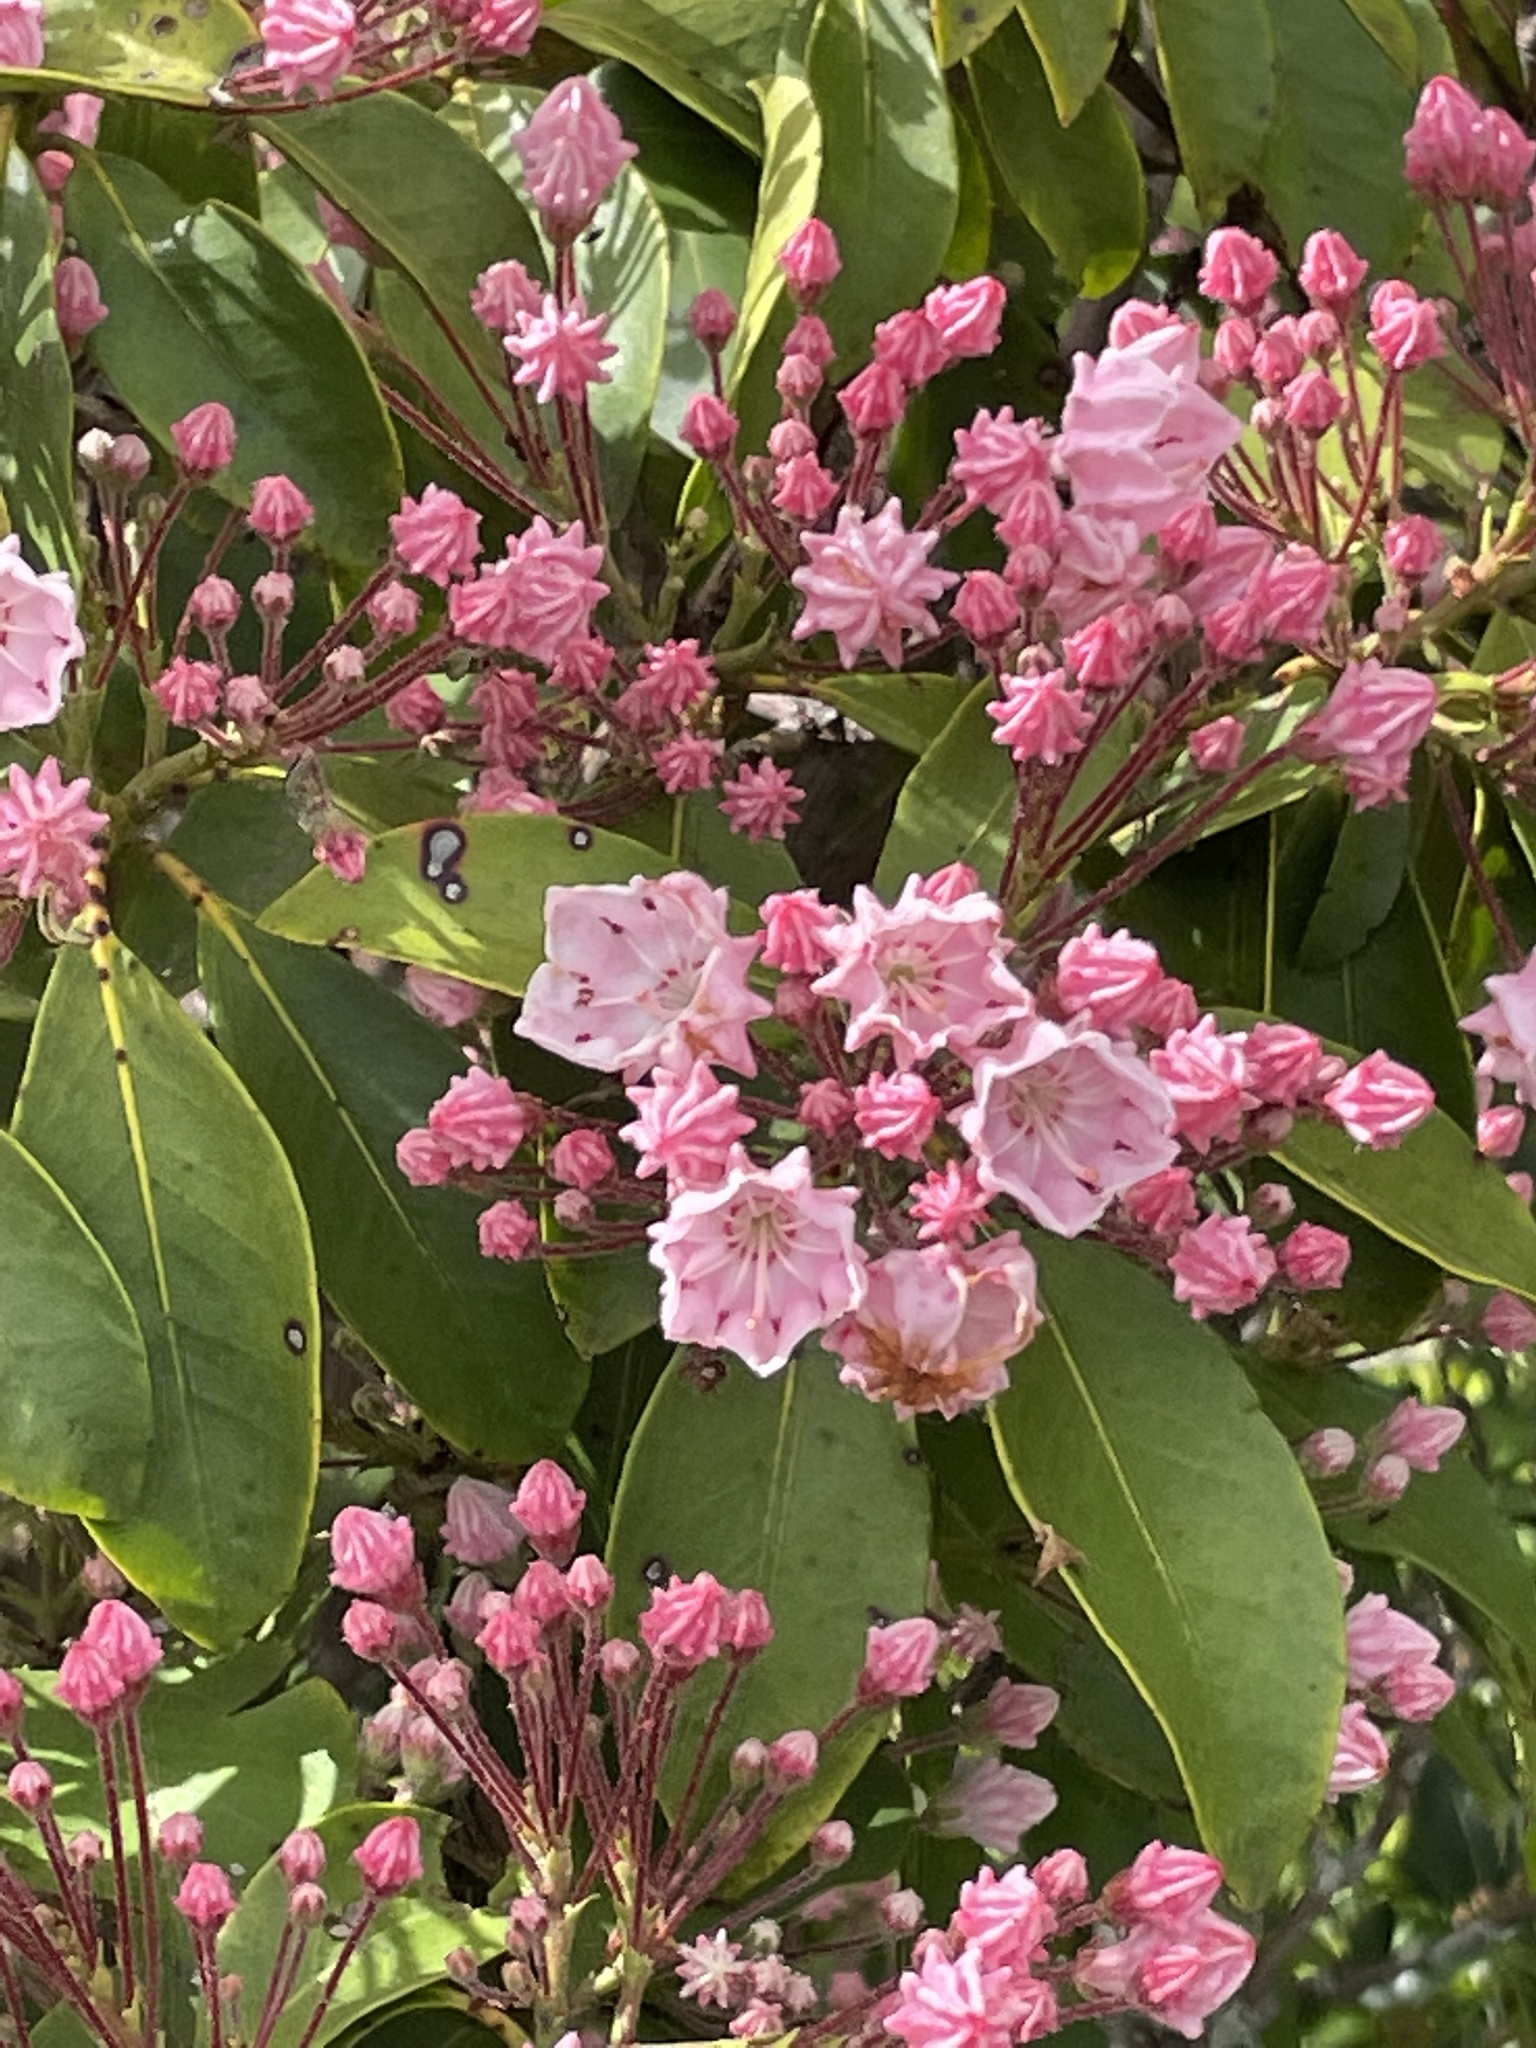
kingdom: Plantae
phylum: Tracheophyta
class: Magnoliopsida
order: Ericales
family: Ericaceae
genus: Kalmia
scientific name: Kalmia latifolia
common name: Mountain-laurel
